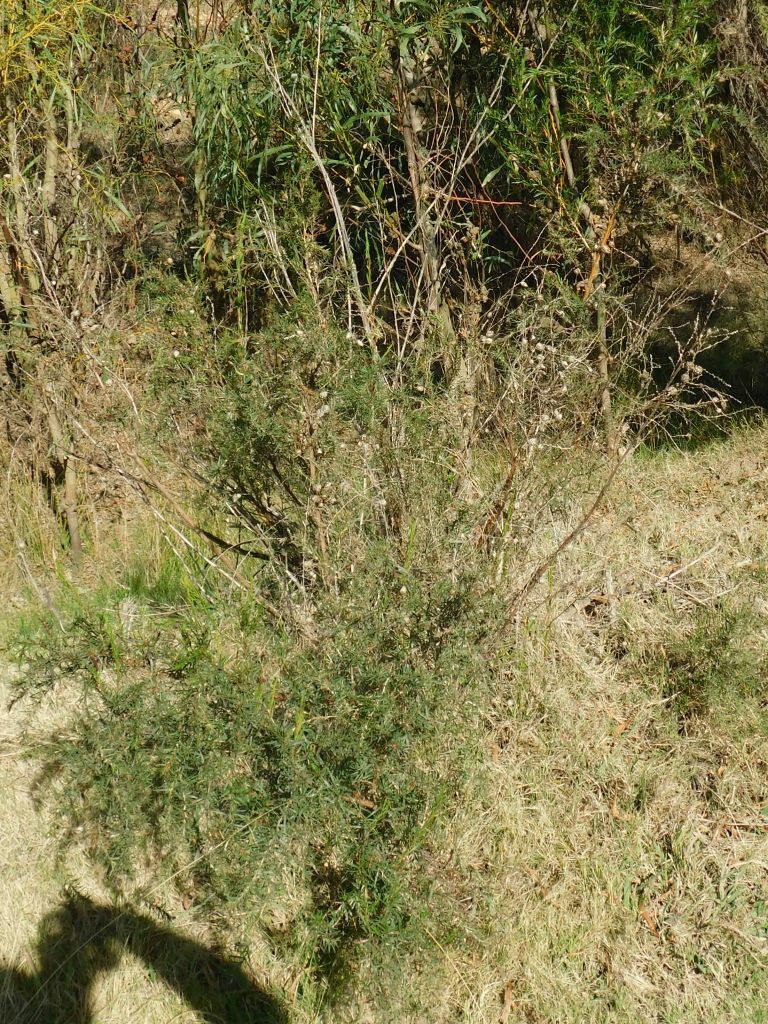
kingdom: Plantae
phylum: Tracheophyta
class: Magnoliopsida
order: Rosales
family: Rosaceae
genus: Cliffortia
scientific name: Cliffortia strobilifera
